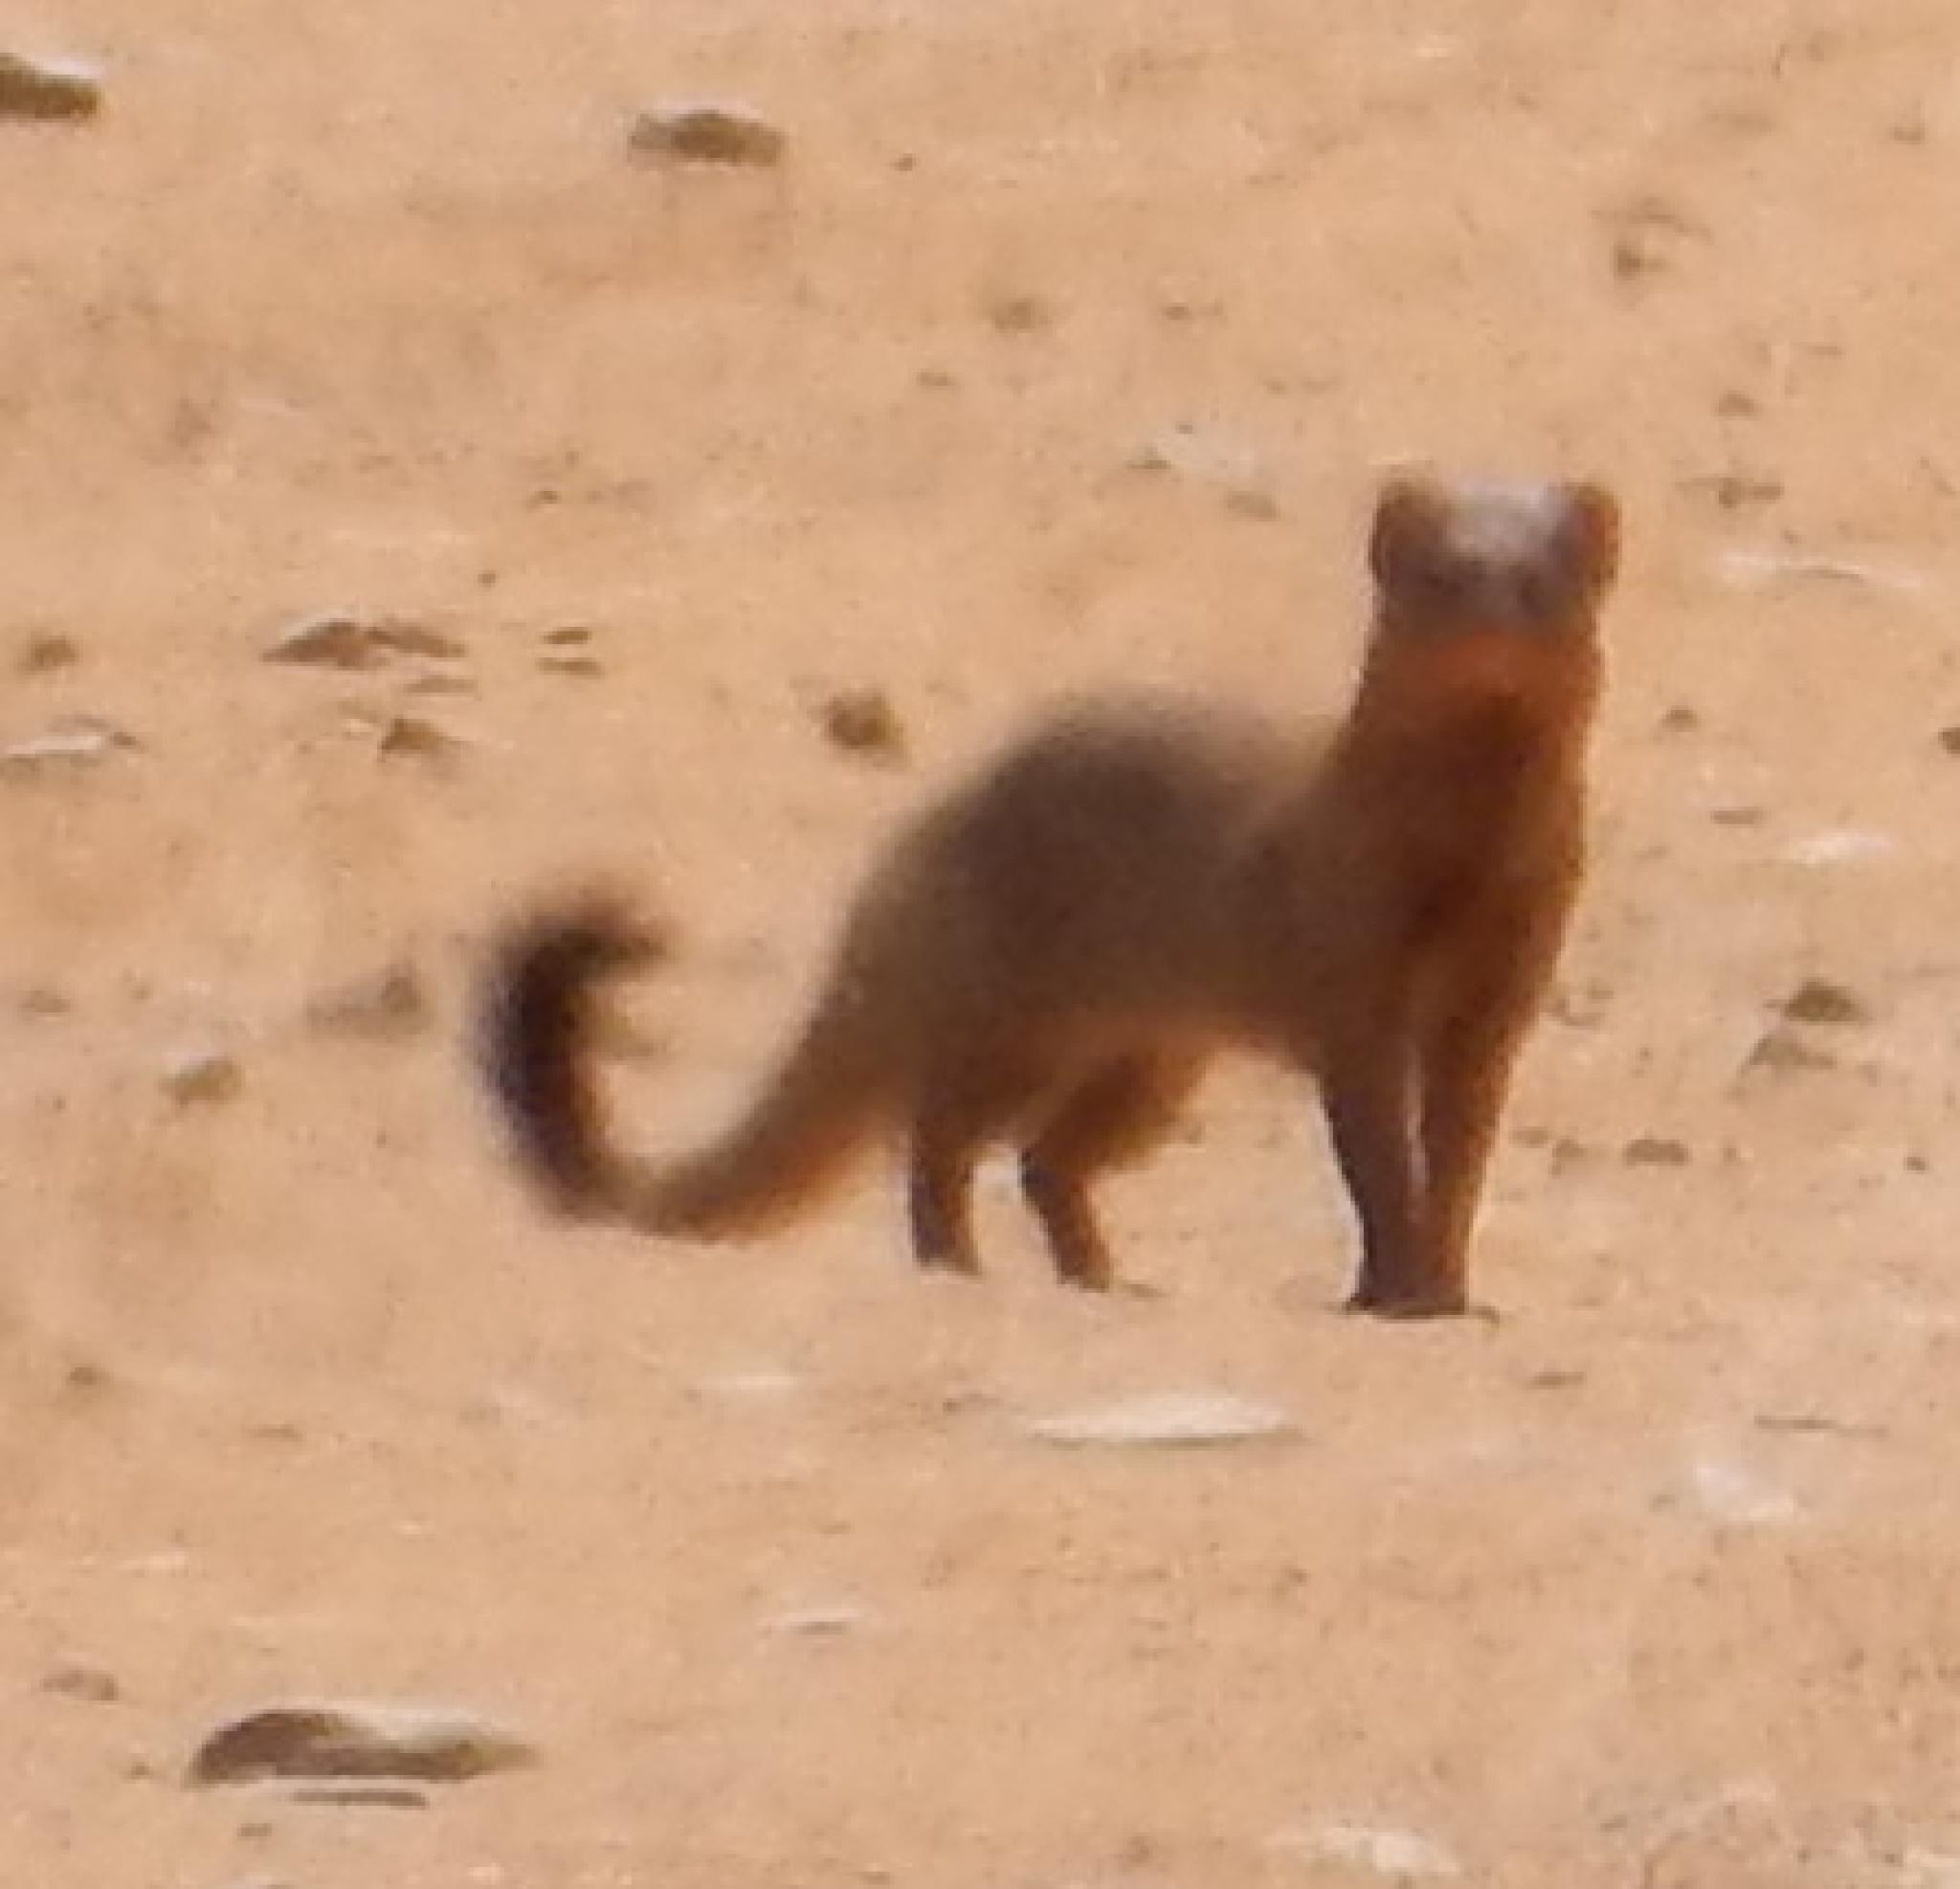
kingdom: Animalia
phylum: Chordata
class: Mammalia
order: Carnivora
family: Herpestidae
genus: Galerella
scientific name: Galerella sanguinea
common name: Slender mongoose
